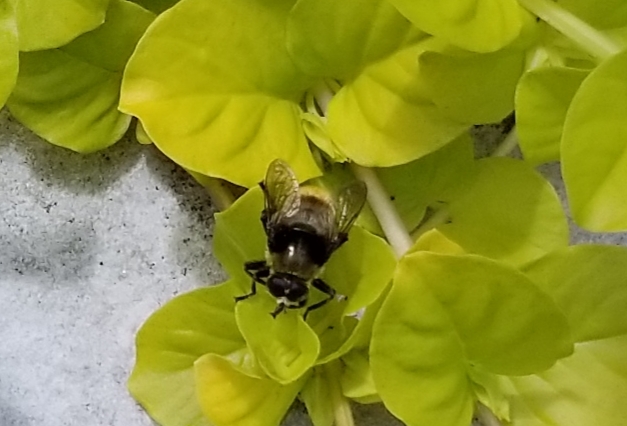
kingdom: Animalia
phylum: Arthropoda
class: Insecta
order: Diptera
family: Syrphidae
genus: Merodon
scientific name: Merodon equestris
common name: Greater bulb-fly
